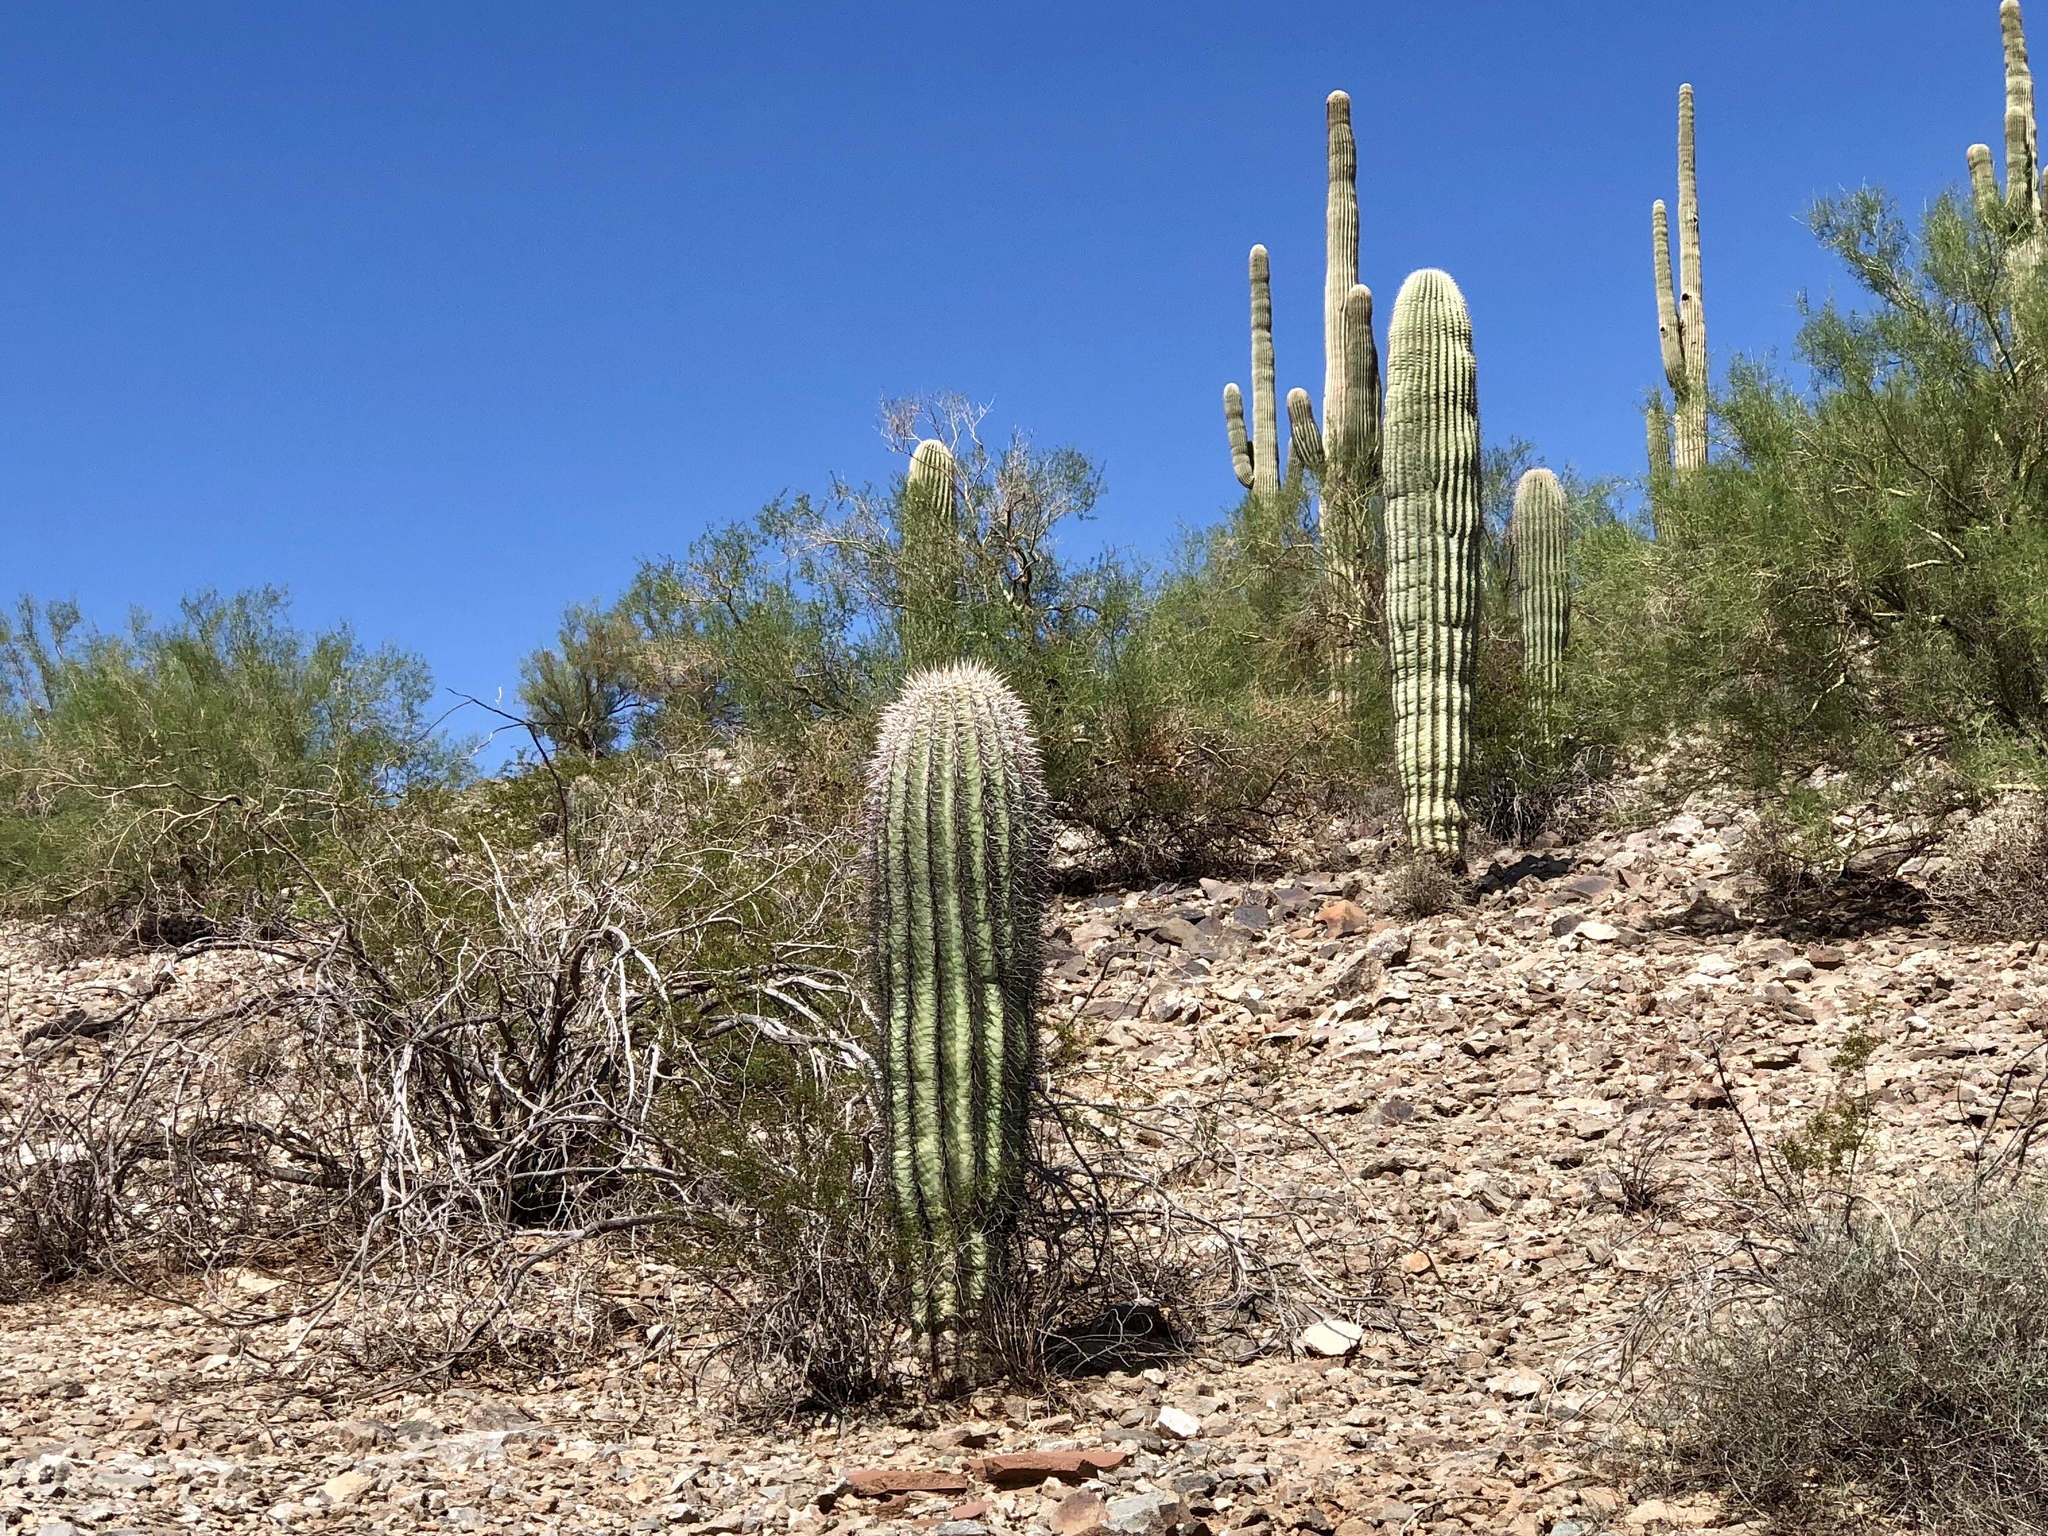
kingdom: Plantae
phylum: Tracheophyta
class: Magnoliopsida
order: Caryophyllales
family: Cactaceae
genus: Carnegiea
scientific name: Carnegiea gigantea
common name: Saguaro
